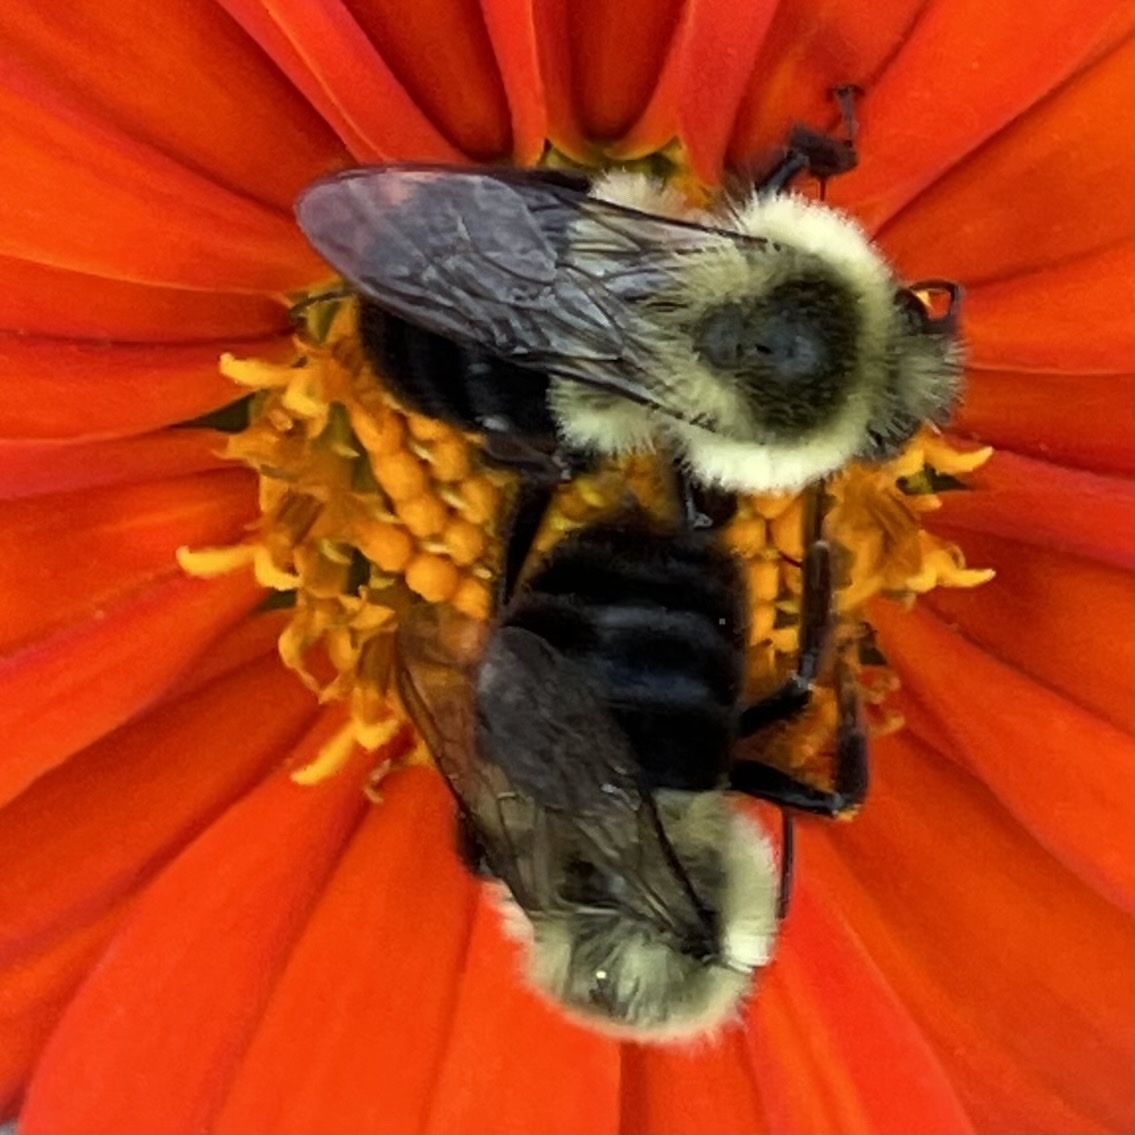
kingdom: Animalia
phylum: Arthropoda
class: Insecta
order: Hymenoptera
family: Apidae
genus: Bombus
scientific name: Bombus impatiens
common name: Common eastern bumble bee
